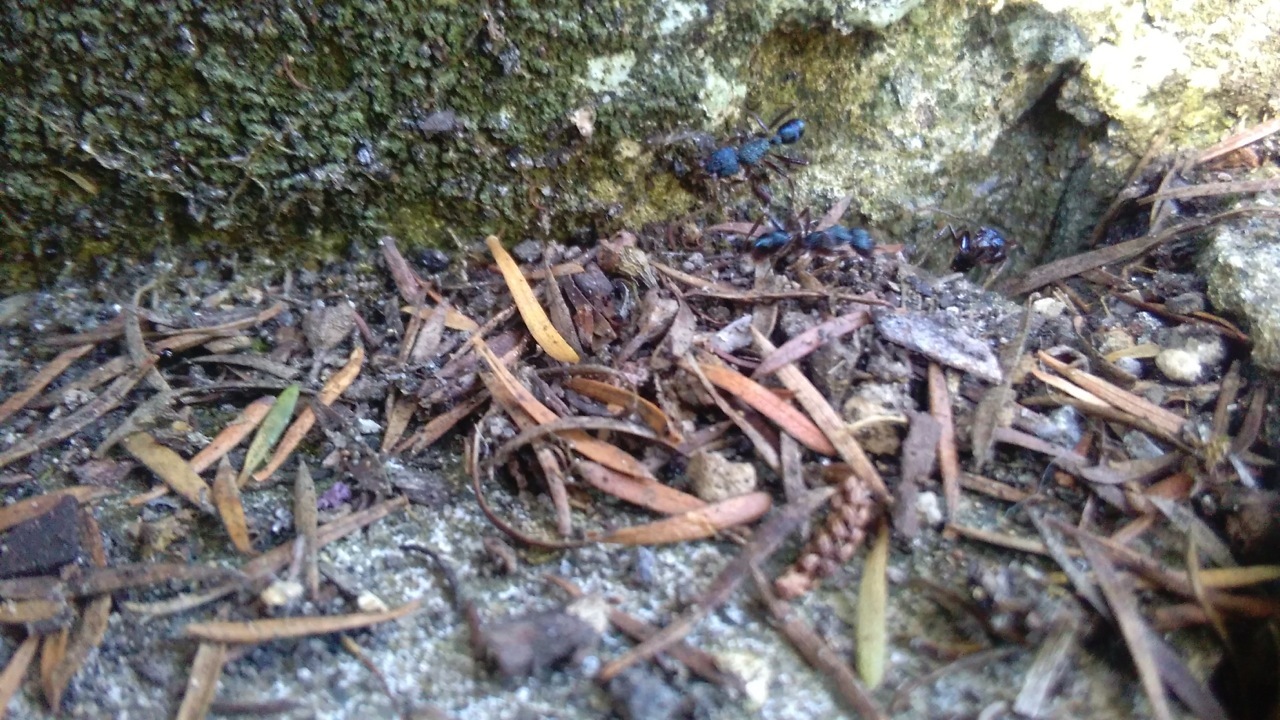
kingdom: Animalia
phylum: Arthropoda
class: Insecta
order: Hymenoptera
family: Formicidae
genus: Rhytidoponera
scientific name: Rhytidoponera chalybaea
